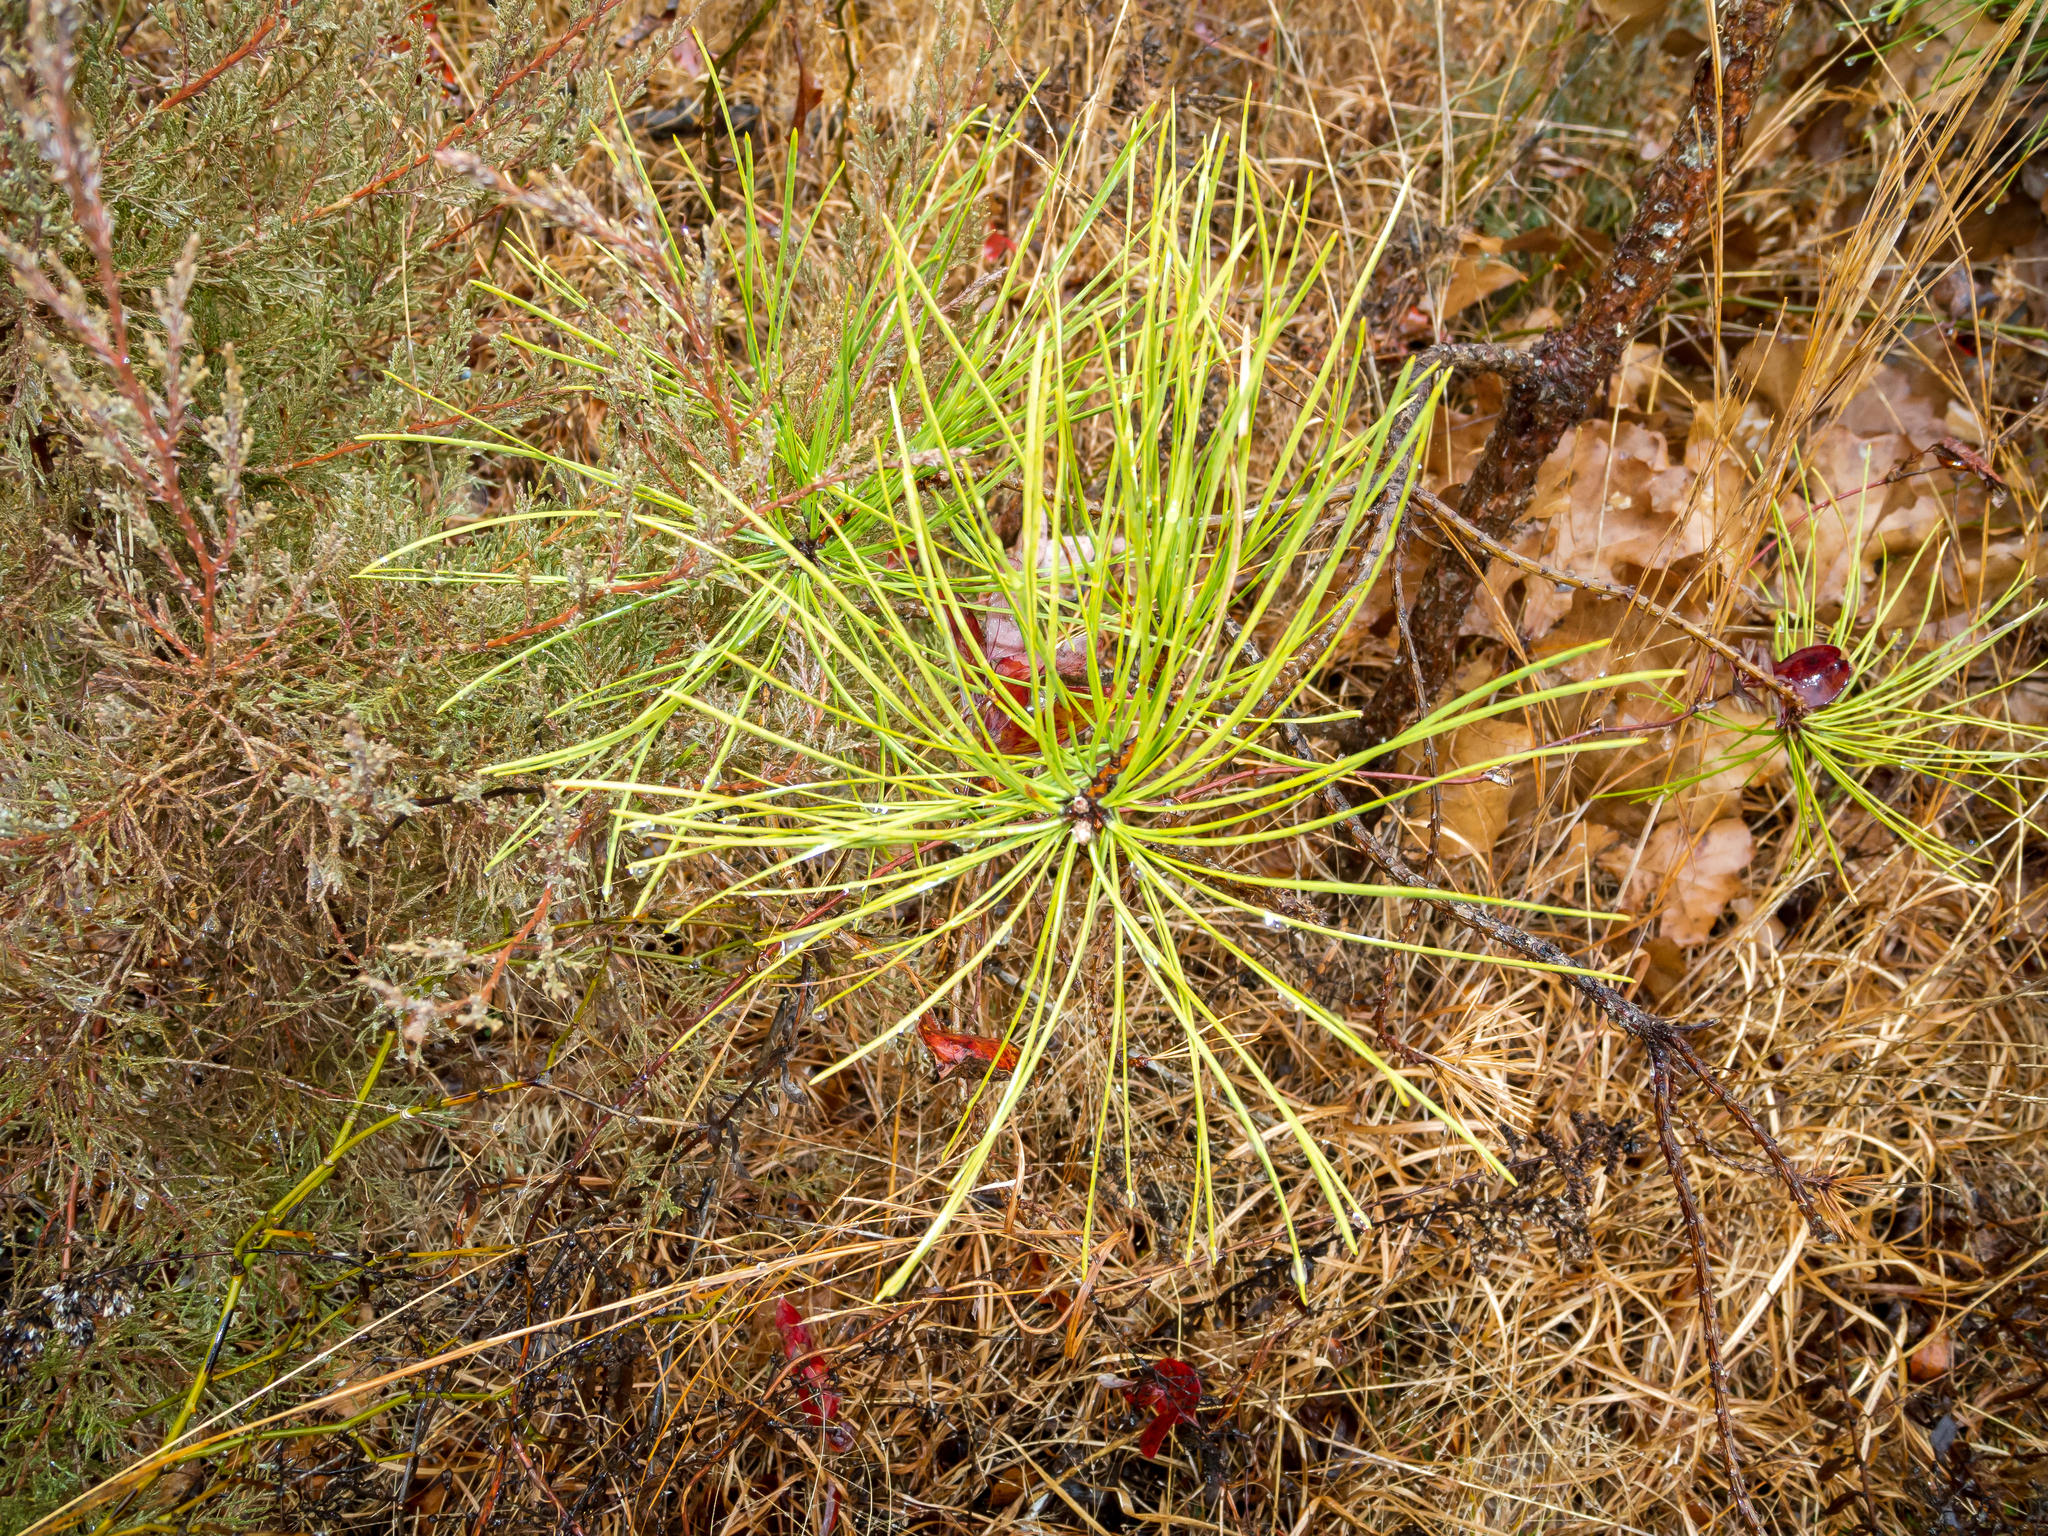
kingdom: Plantae
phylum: Tracheophyta
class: Pinopsida
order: Pinales
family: Pinaceae
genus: Pinus
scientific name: Pinus rigida
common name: Pitch pine
